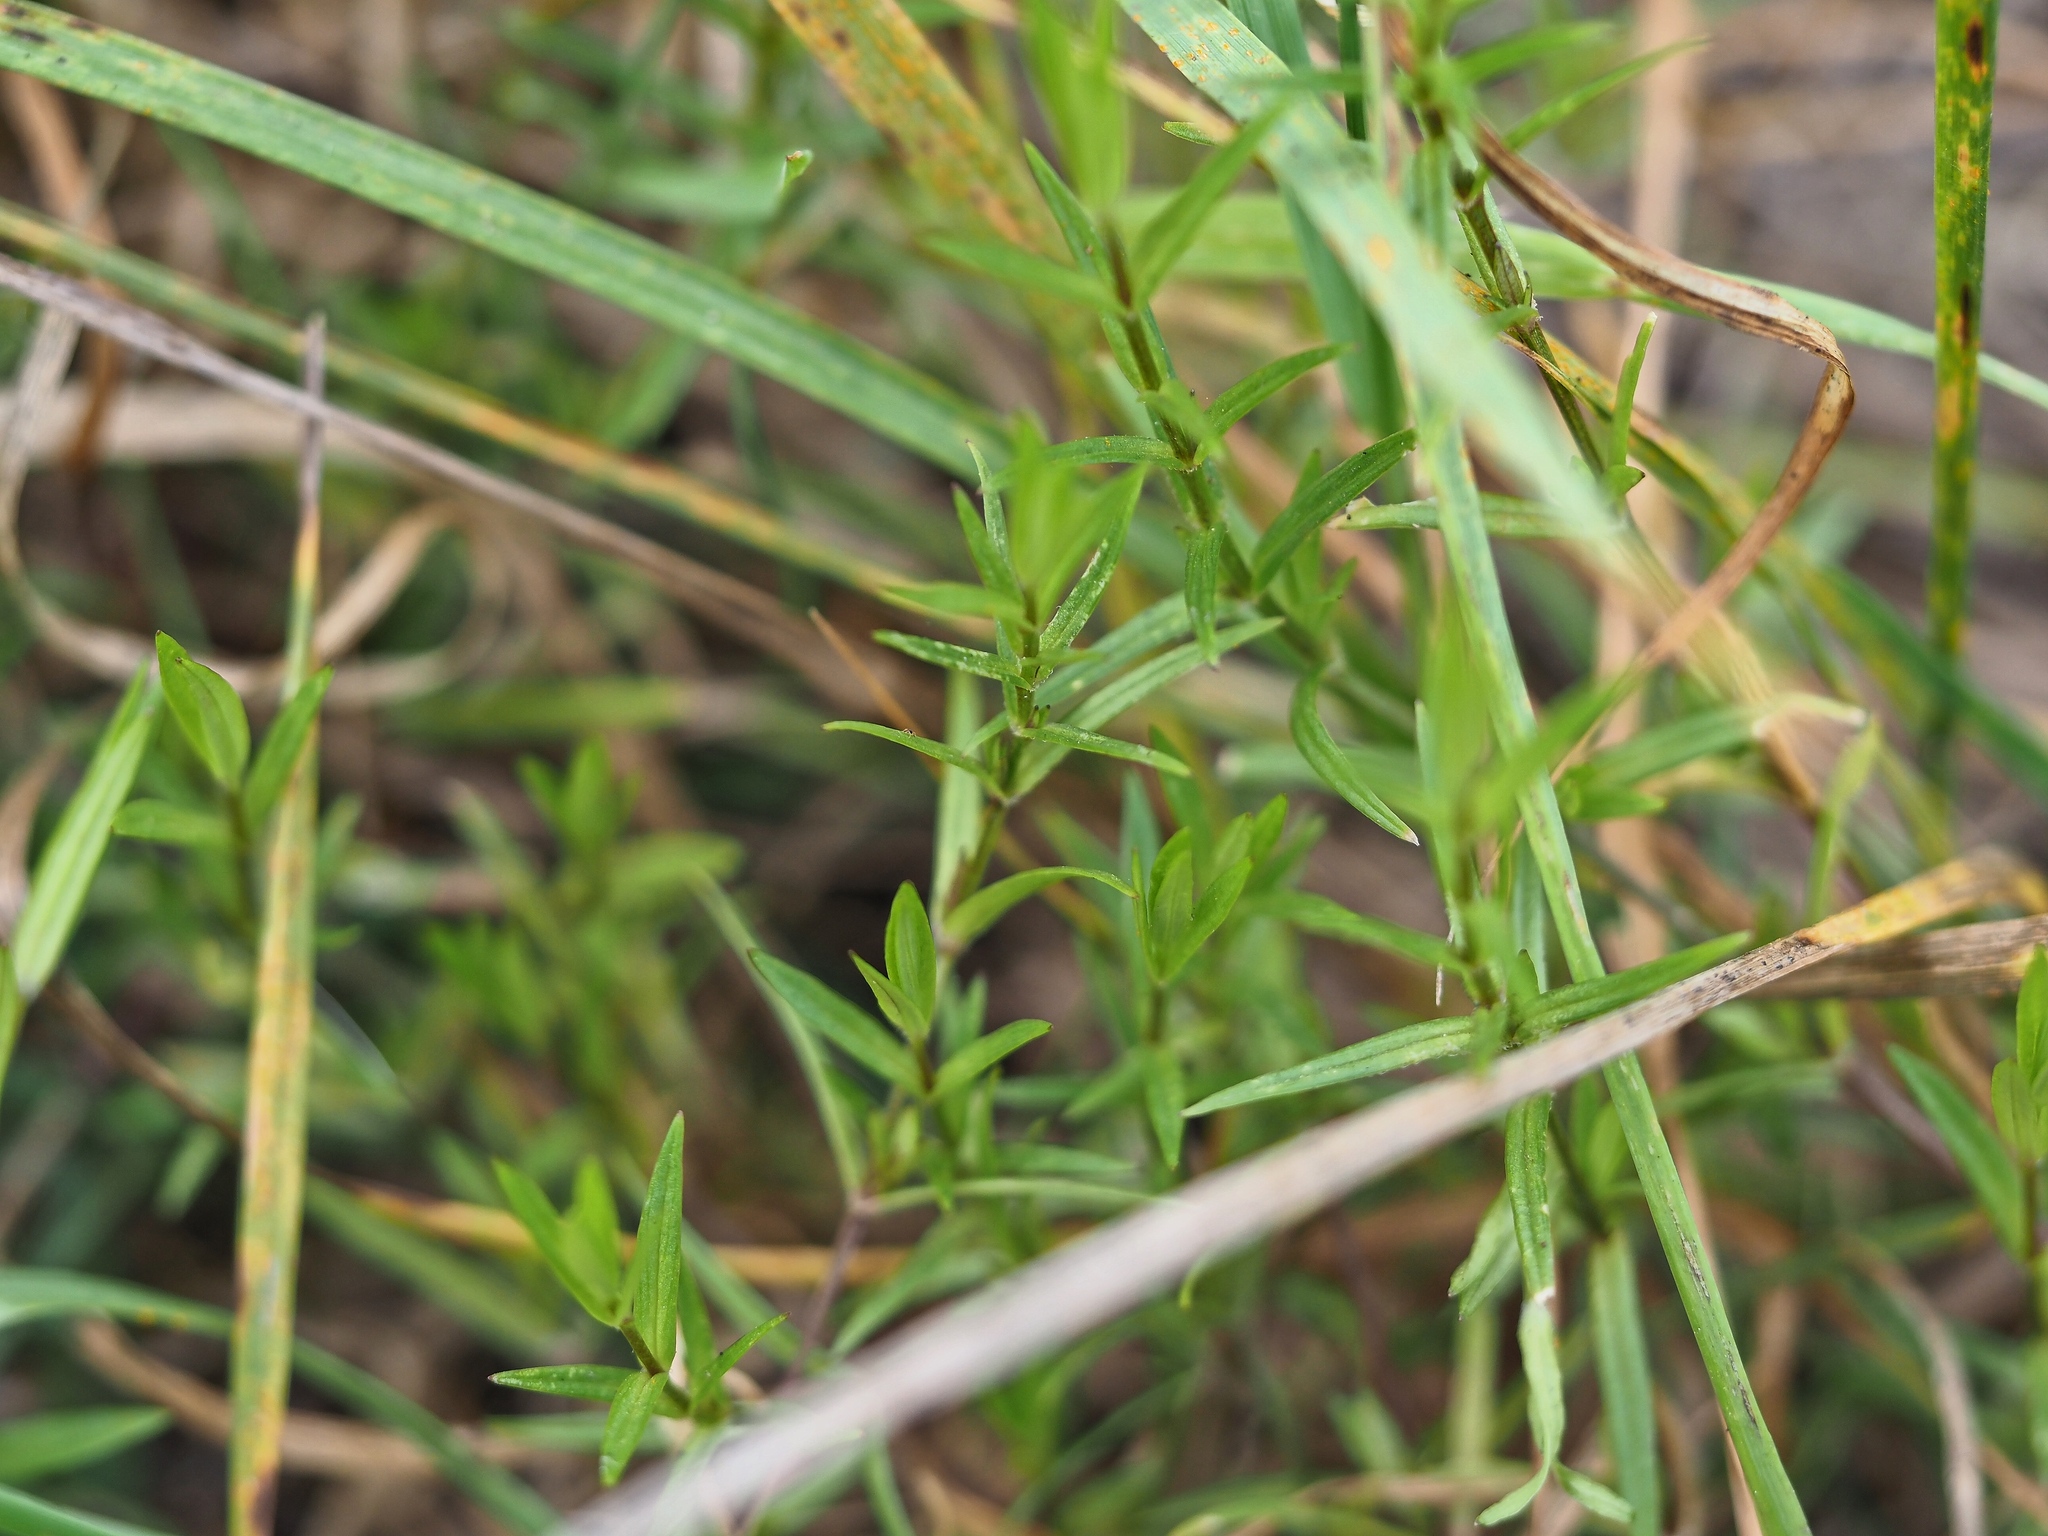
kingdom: Plantae
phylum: Tracheophyta
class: Magnoliopsida
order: Caryophyllales
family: Caryophyllaceae
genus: Stellaria
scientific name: Stellaria graminea
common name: Grass-like starwort
